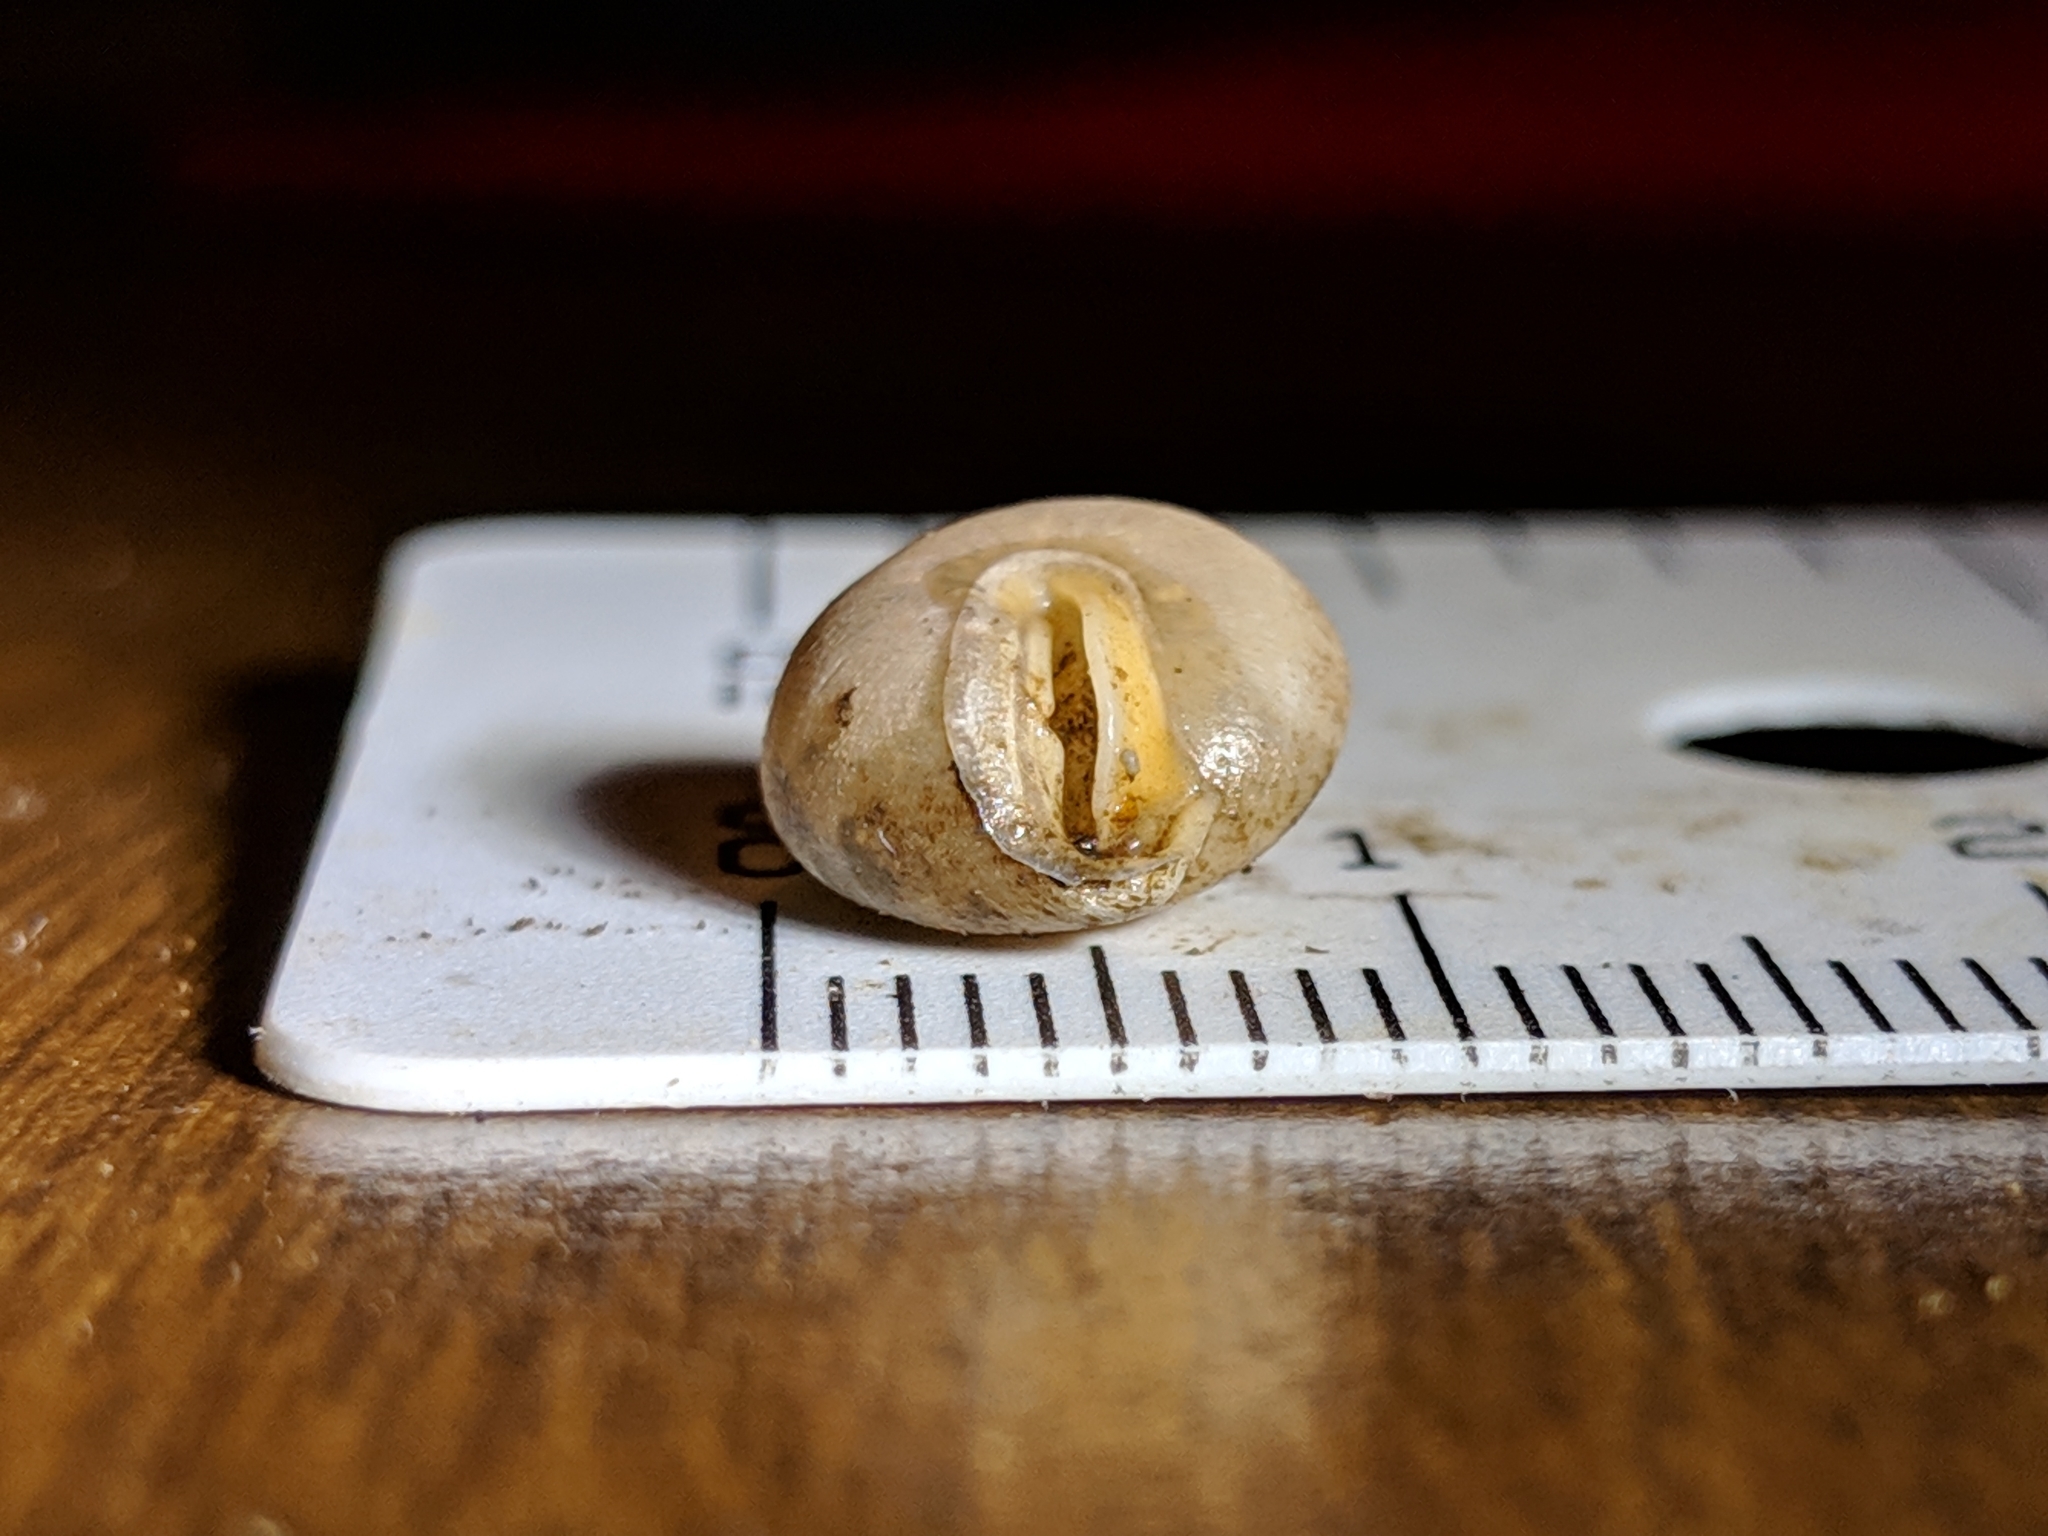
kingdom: Animalia
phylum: Mollusca
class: Gastropoda
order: Stylommatophora
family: Polygyridae
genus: Stenotrema
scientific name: Stenotrema angellum
